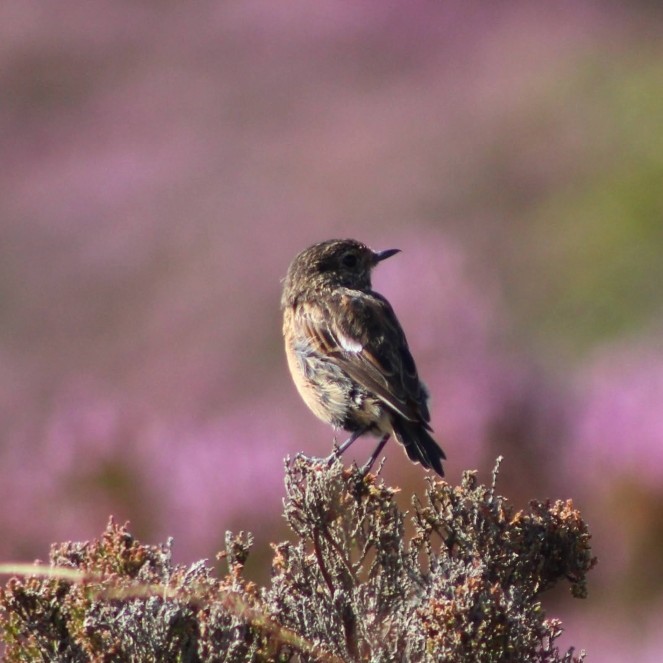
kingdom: Animalia
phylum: Chordata
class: Aves
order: Passeriformes
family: Muscicapidae
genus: Saxicola
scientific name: Saxicola rubicola
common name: European stonechat
